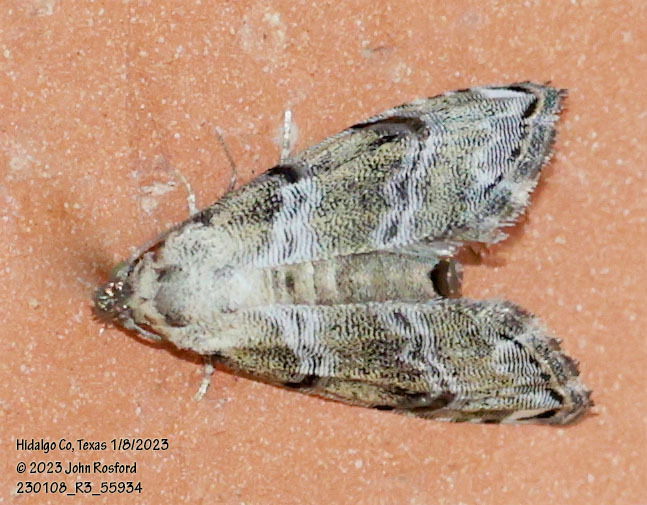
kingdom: Animalia
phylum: Arthropoda
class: Insecta
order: Lepidoptera
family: Noctuidae
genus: Abablemma
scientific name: Abablemma bilineata
